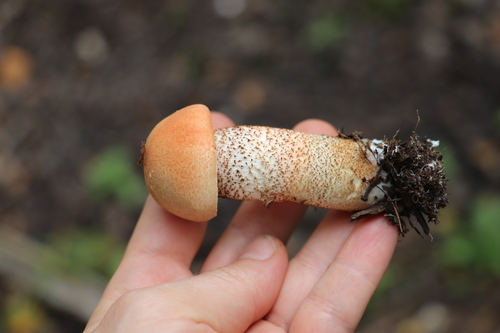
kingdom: Fungi
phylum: Basidiomycota
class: Agaricomycetes
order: Boletales
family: Boletaceae
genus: Leccinum
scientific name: Leccinum aurantiacum
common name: Orange bolete
